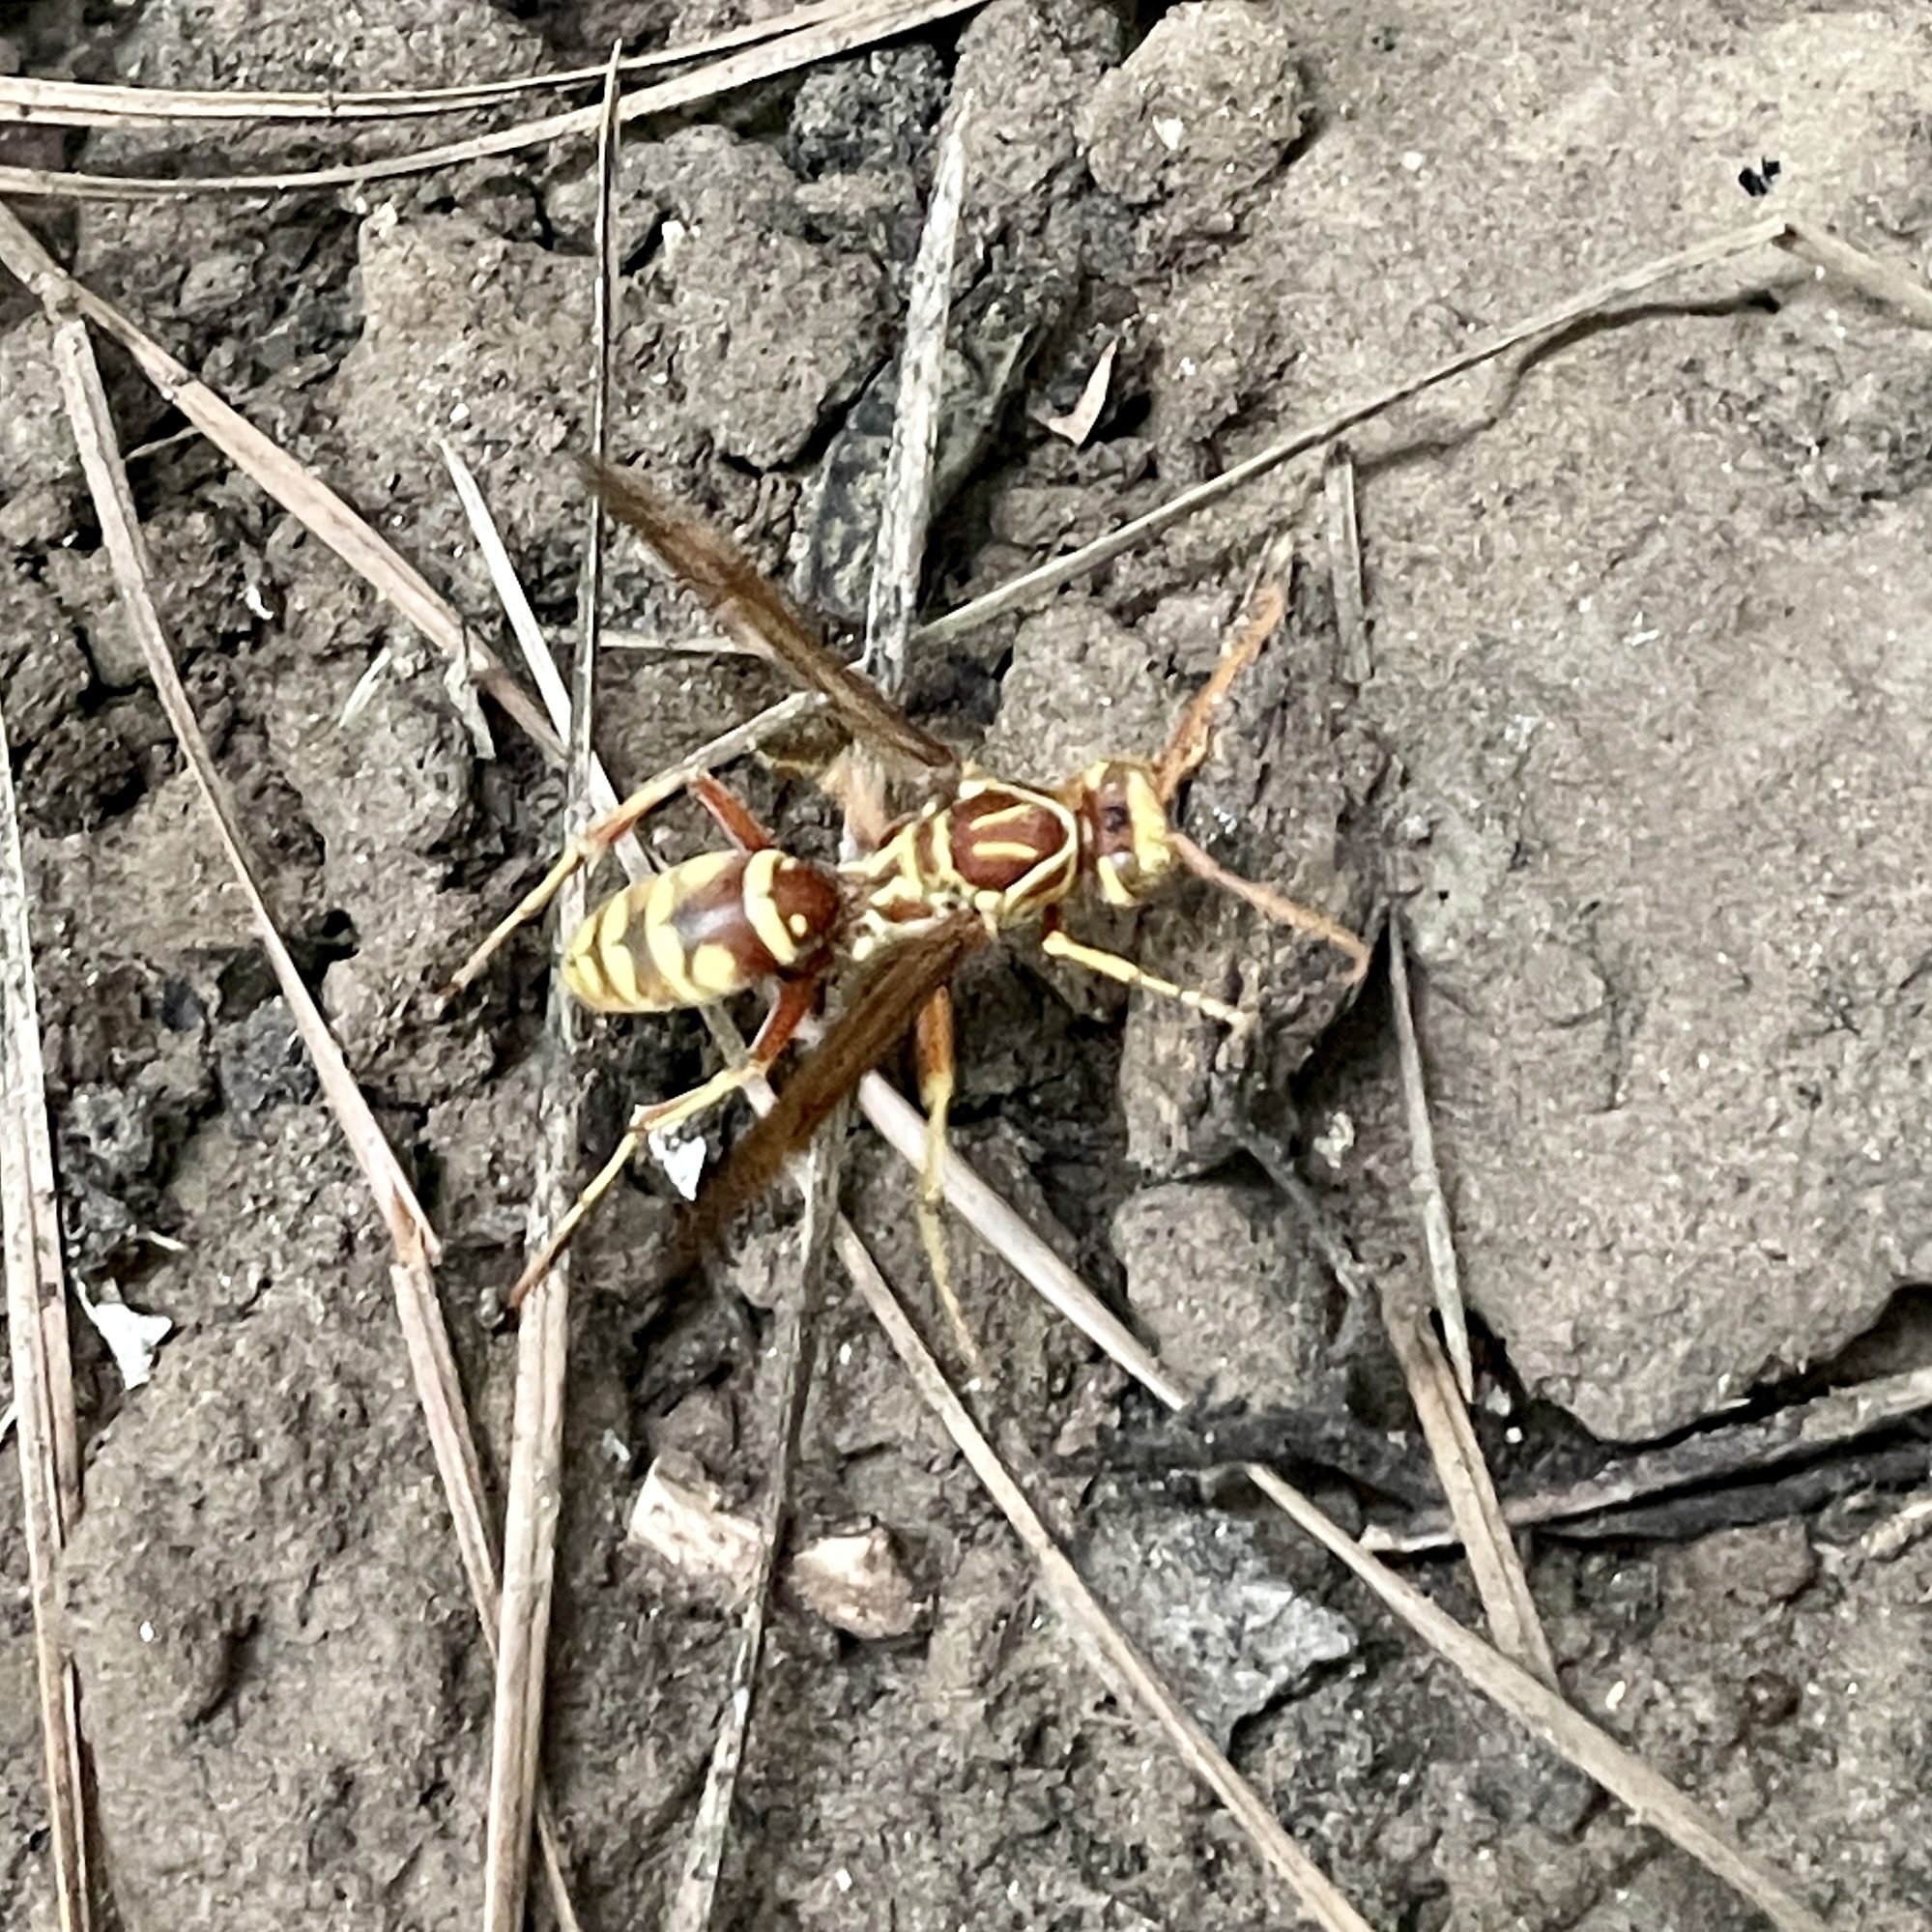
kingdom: Animalia
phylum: Arthropoda
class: Insecta
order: Hymenoptera
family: Eumenidae
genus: Polistes
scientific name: Polistes apachus
